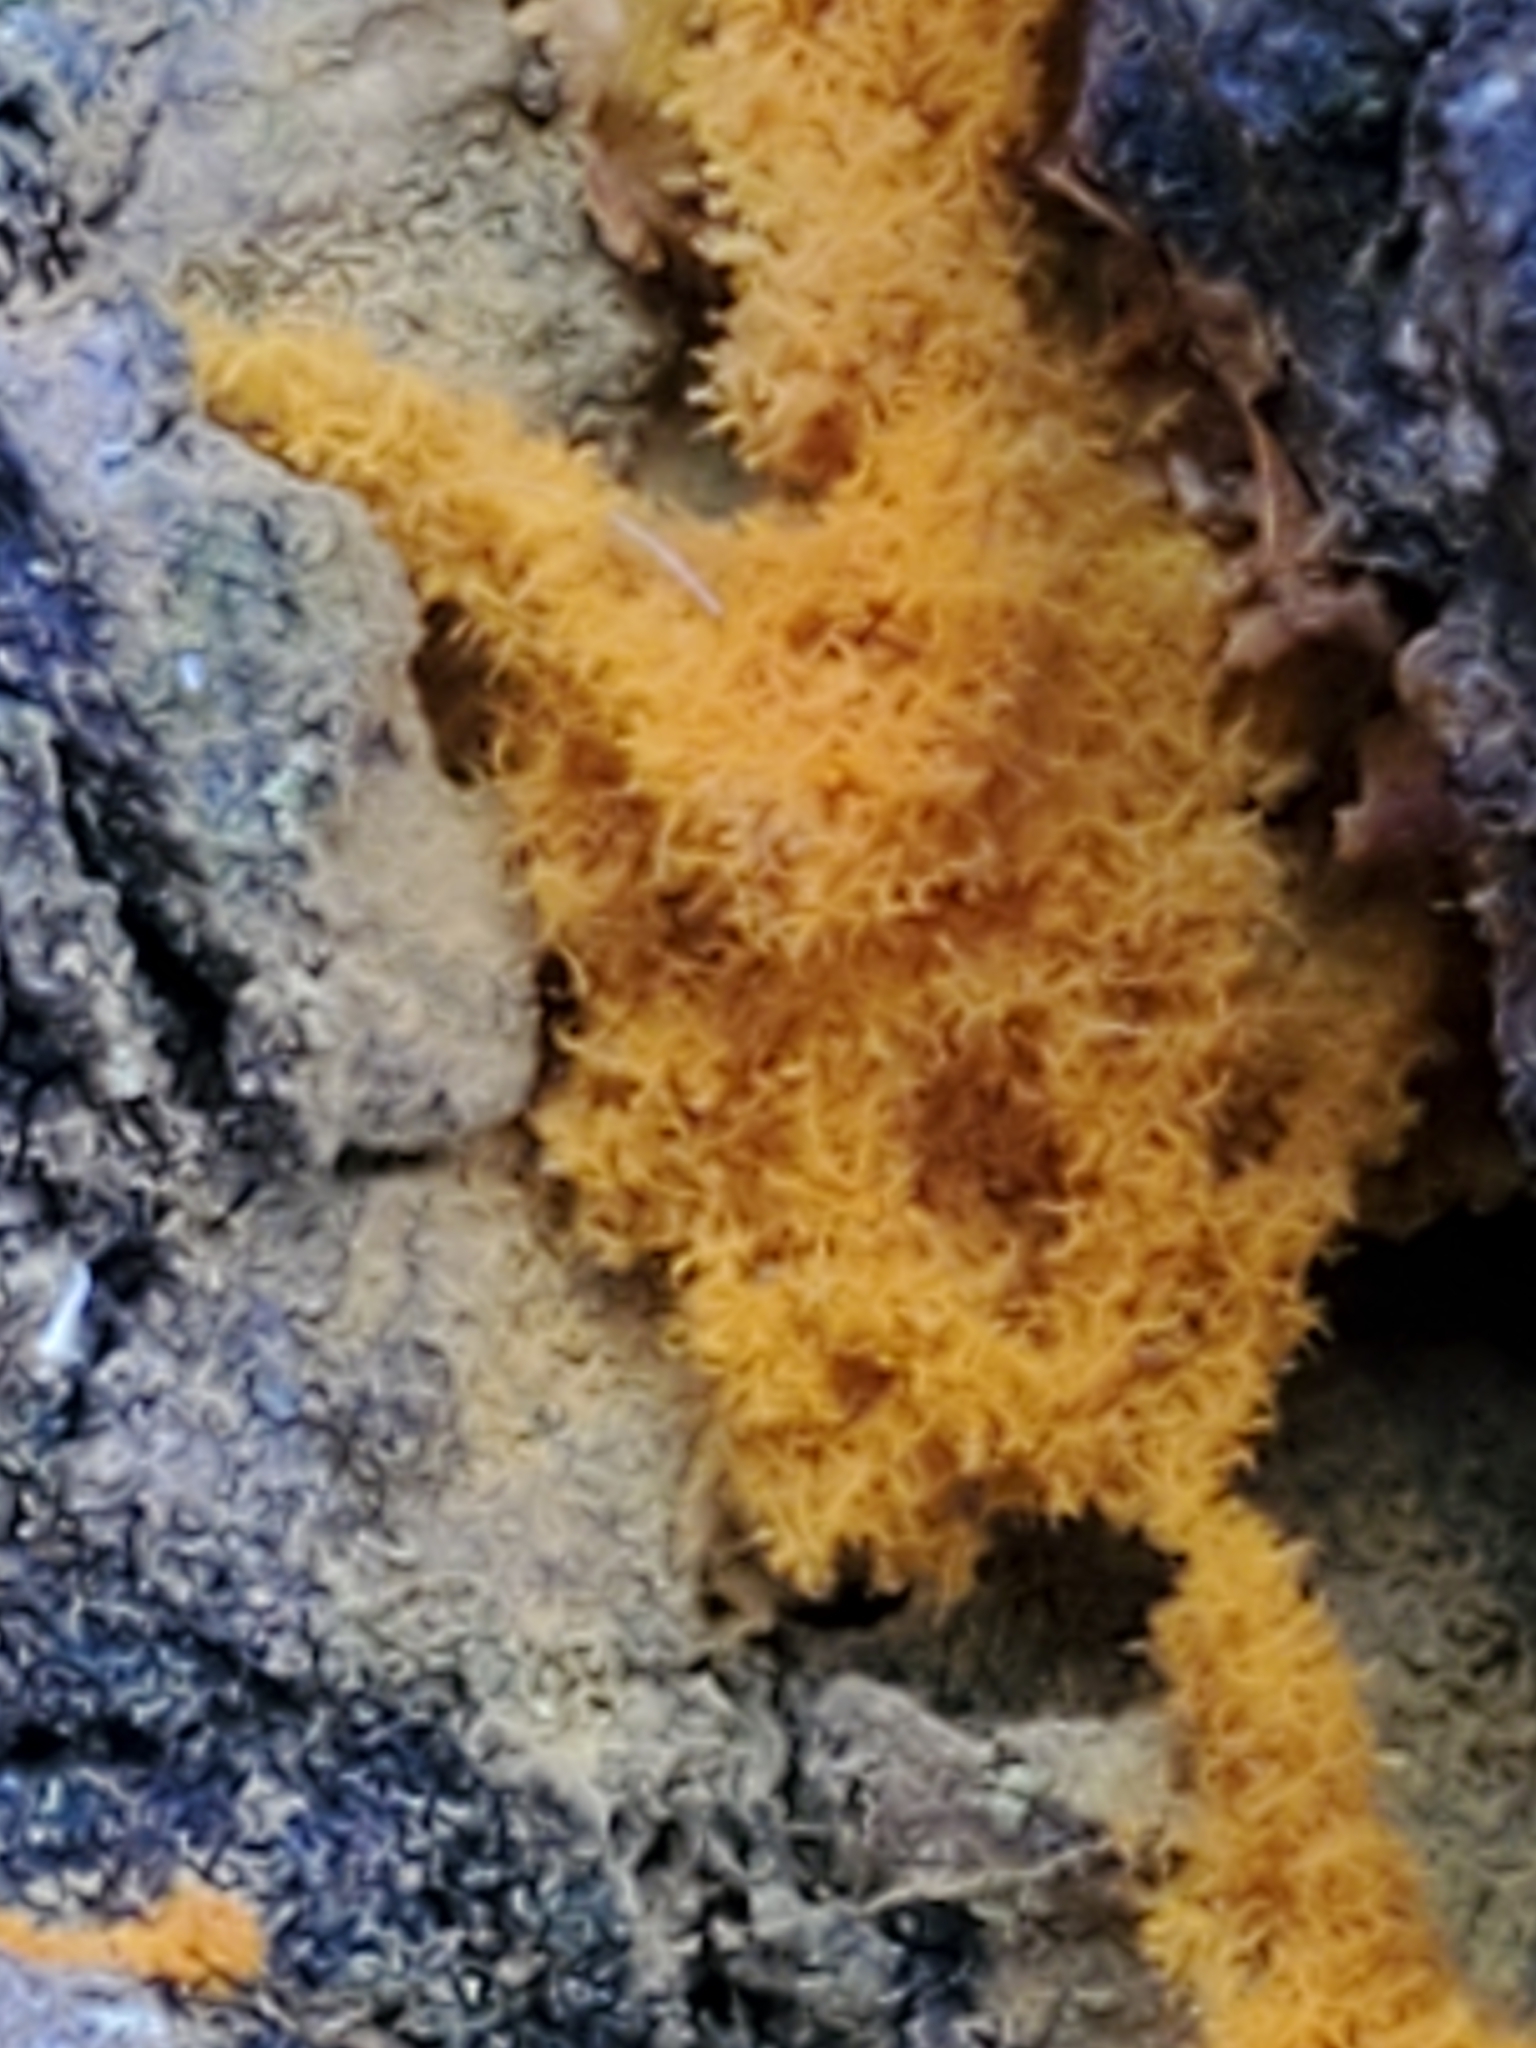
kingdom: Protozoa
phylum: Mycetozoa
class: Myxomycetes
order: Trichiales
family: Arcyriaceae
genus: Hemitrichia
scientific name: Hemitrichia serpula
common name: Pretzel slime mold
